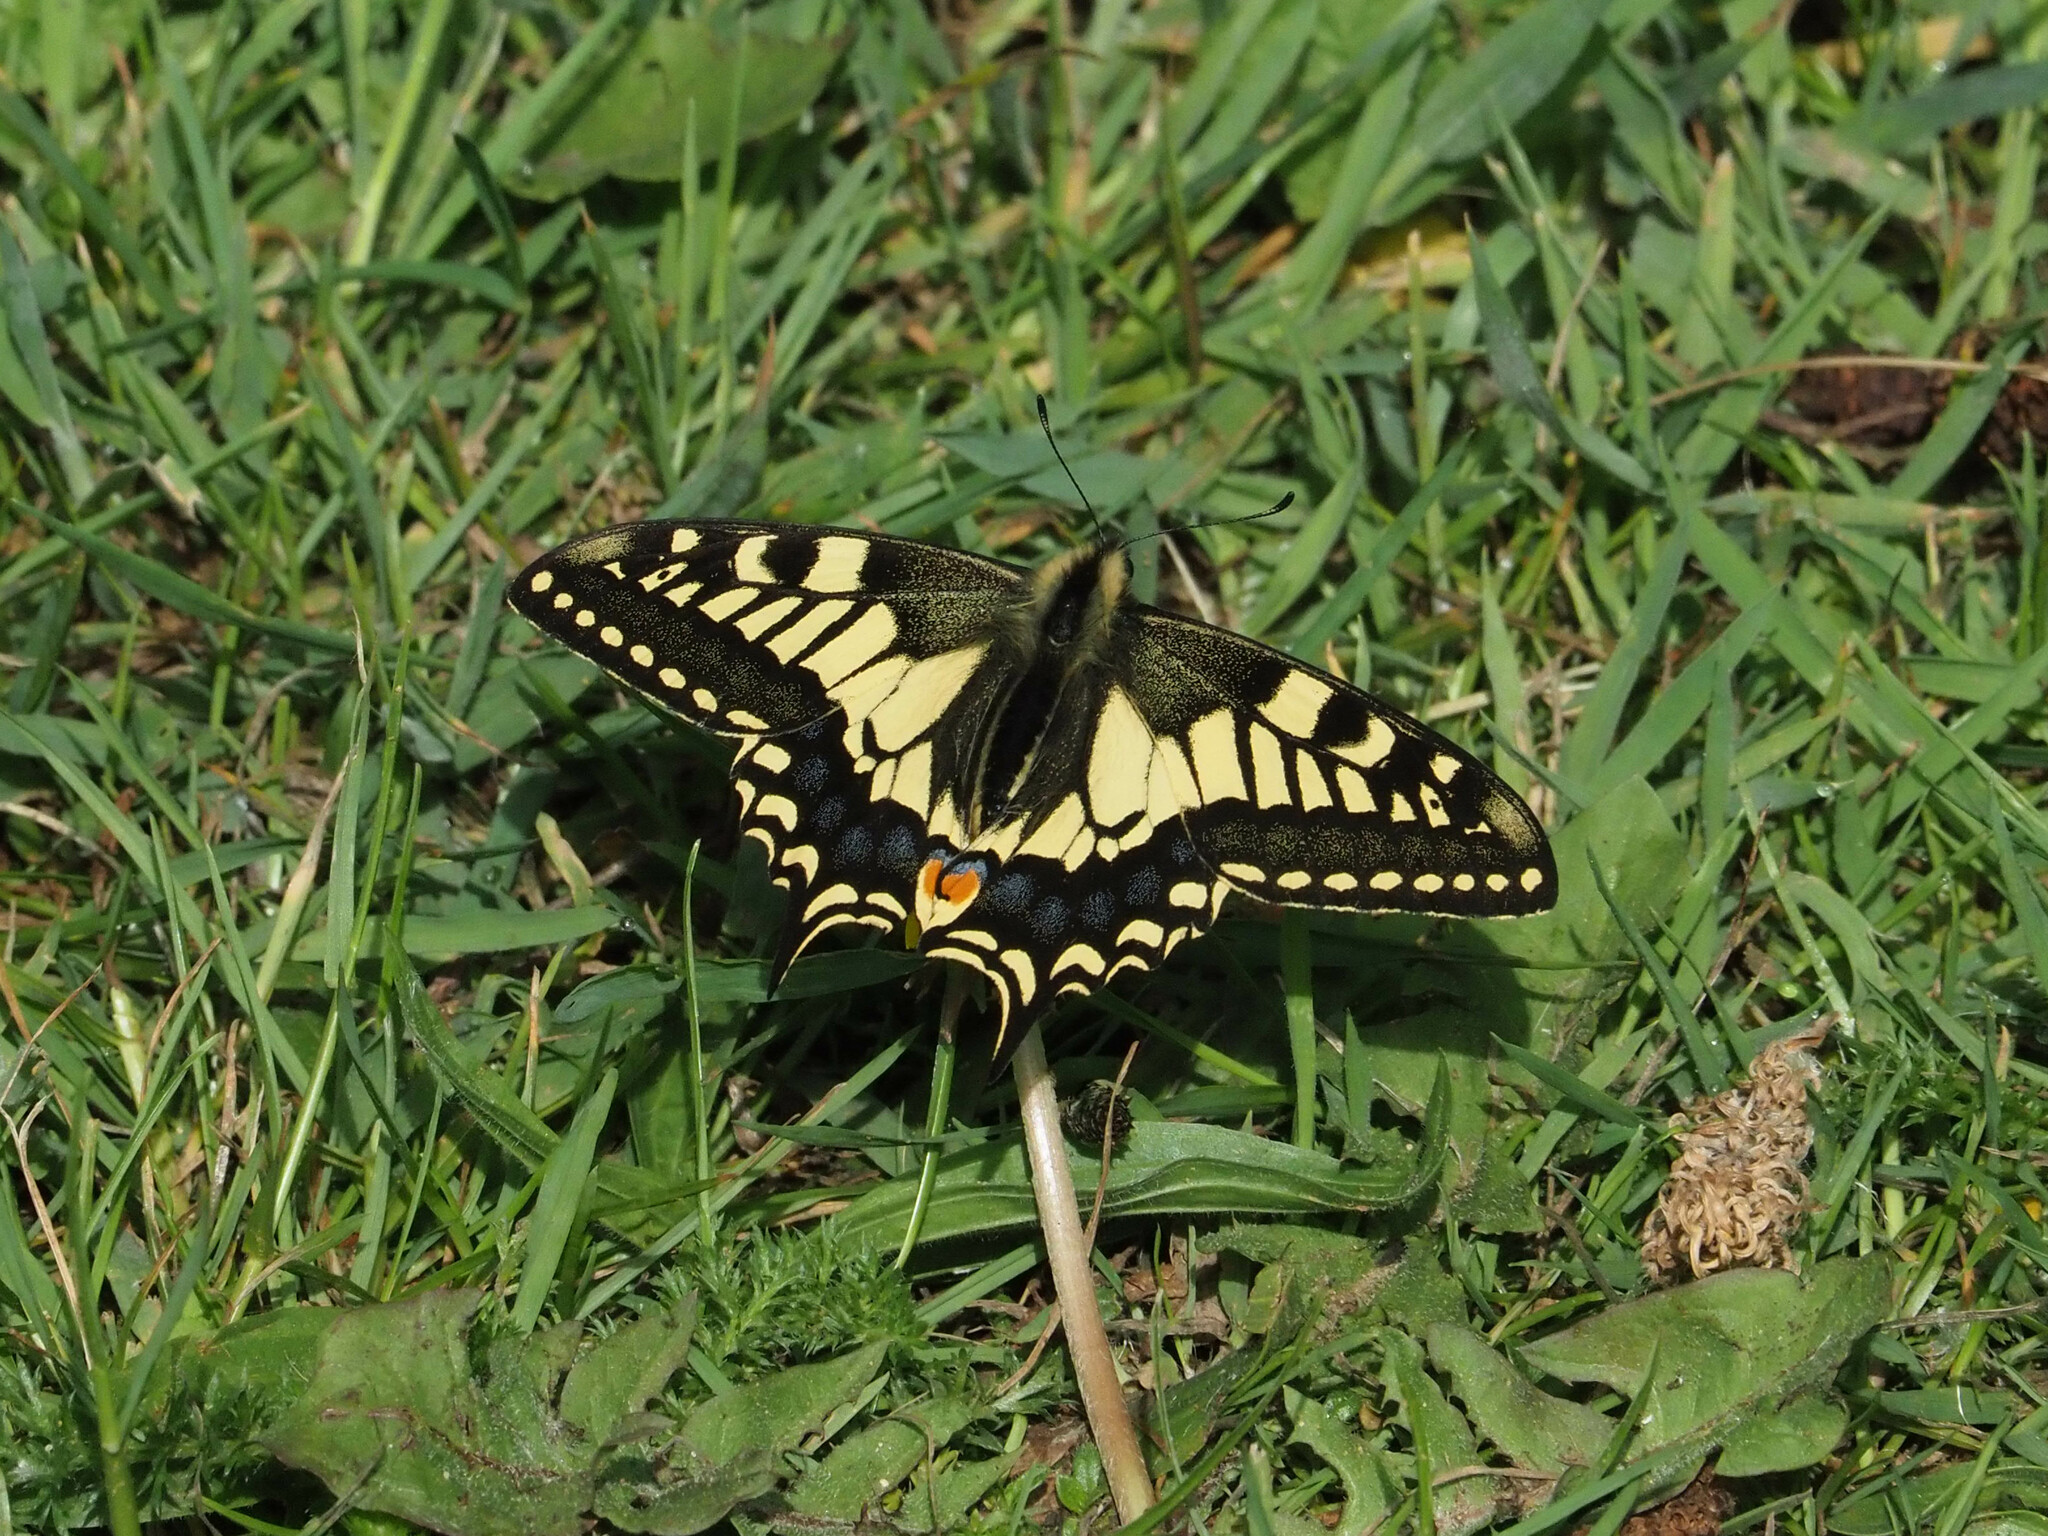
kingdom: Animalia
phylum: Arthropoda
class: Insecta
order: Lepidoptera
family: Papilionidae
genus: Papilio
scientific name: Papilio machaon
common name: Swallowtail
